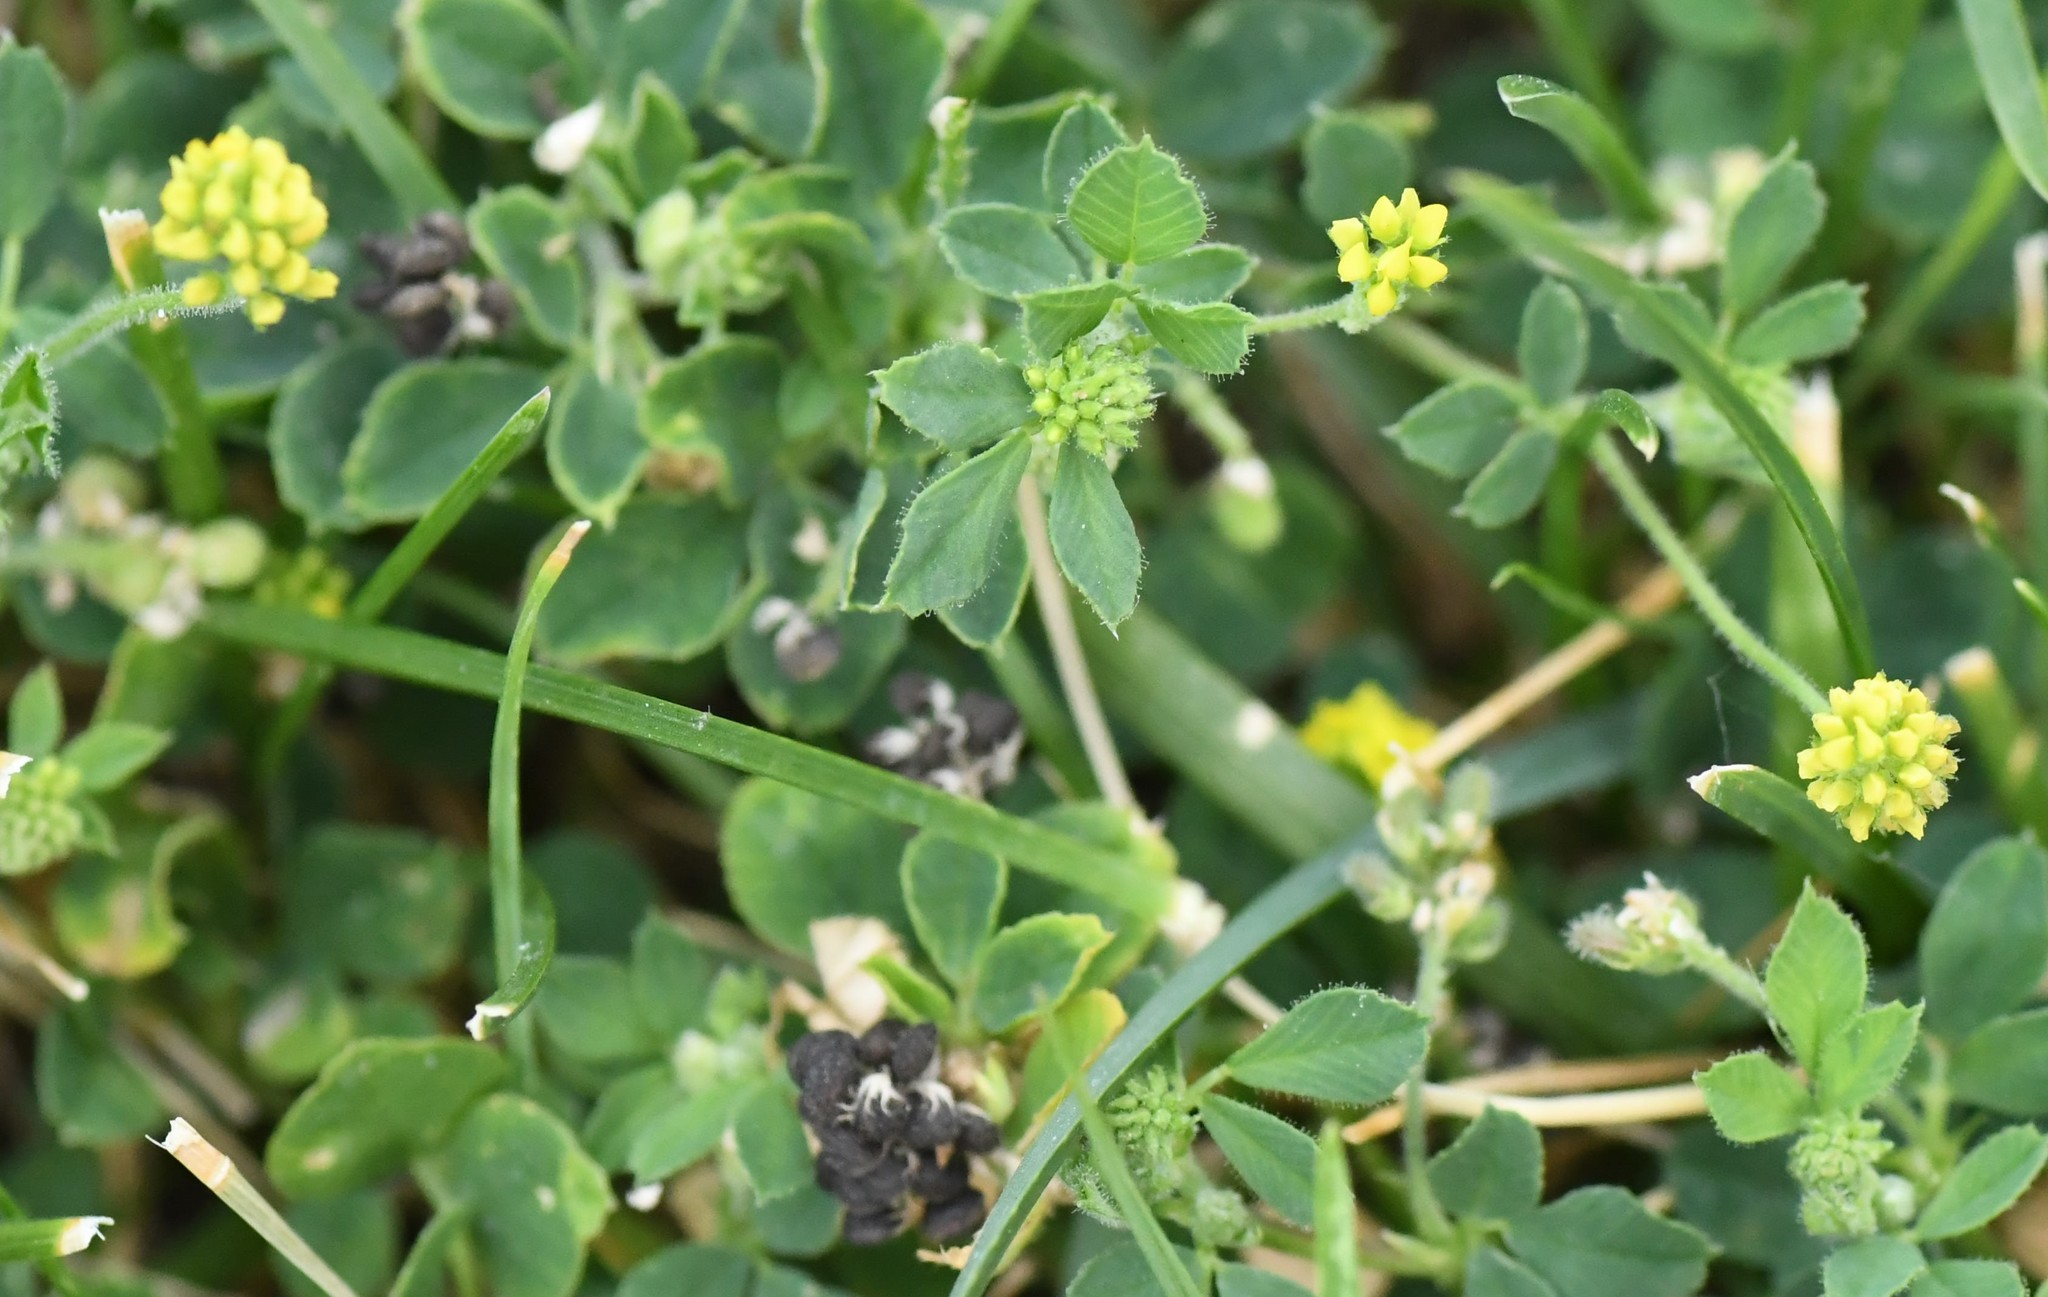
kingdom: Plantae
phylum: Tracheophyta
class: Magnoliopsida
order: Fabales
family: Fabaceae
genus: Medicago
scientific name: Medicago lupulina
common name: Black medick
